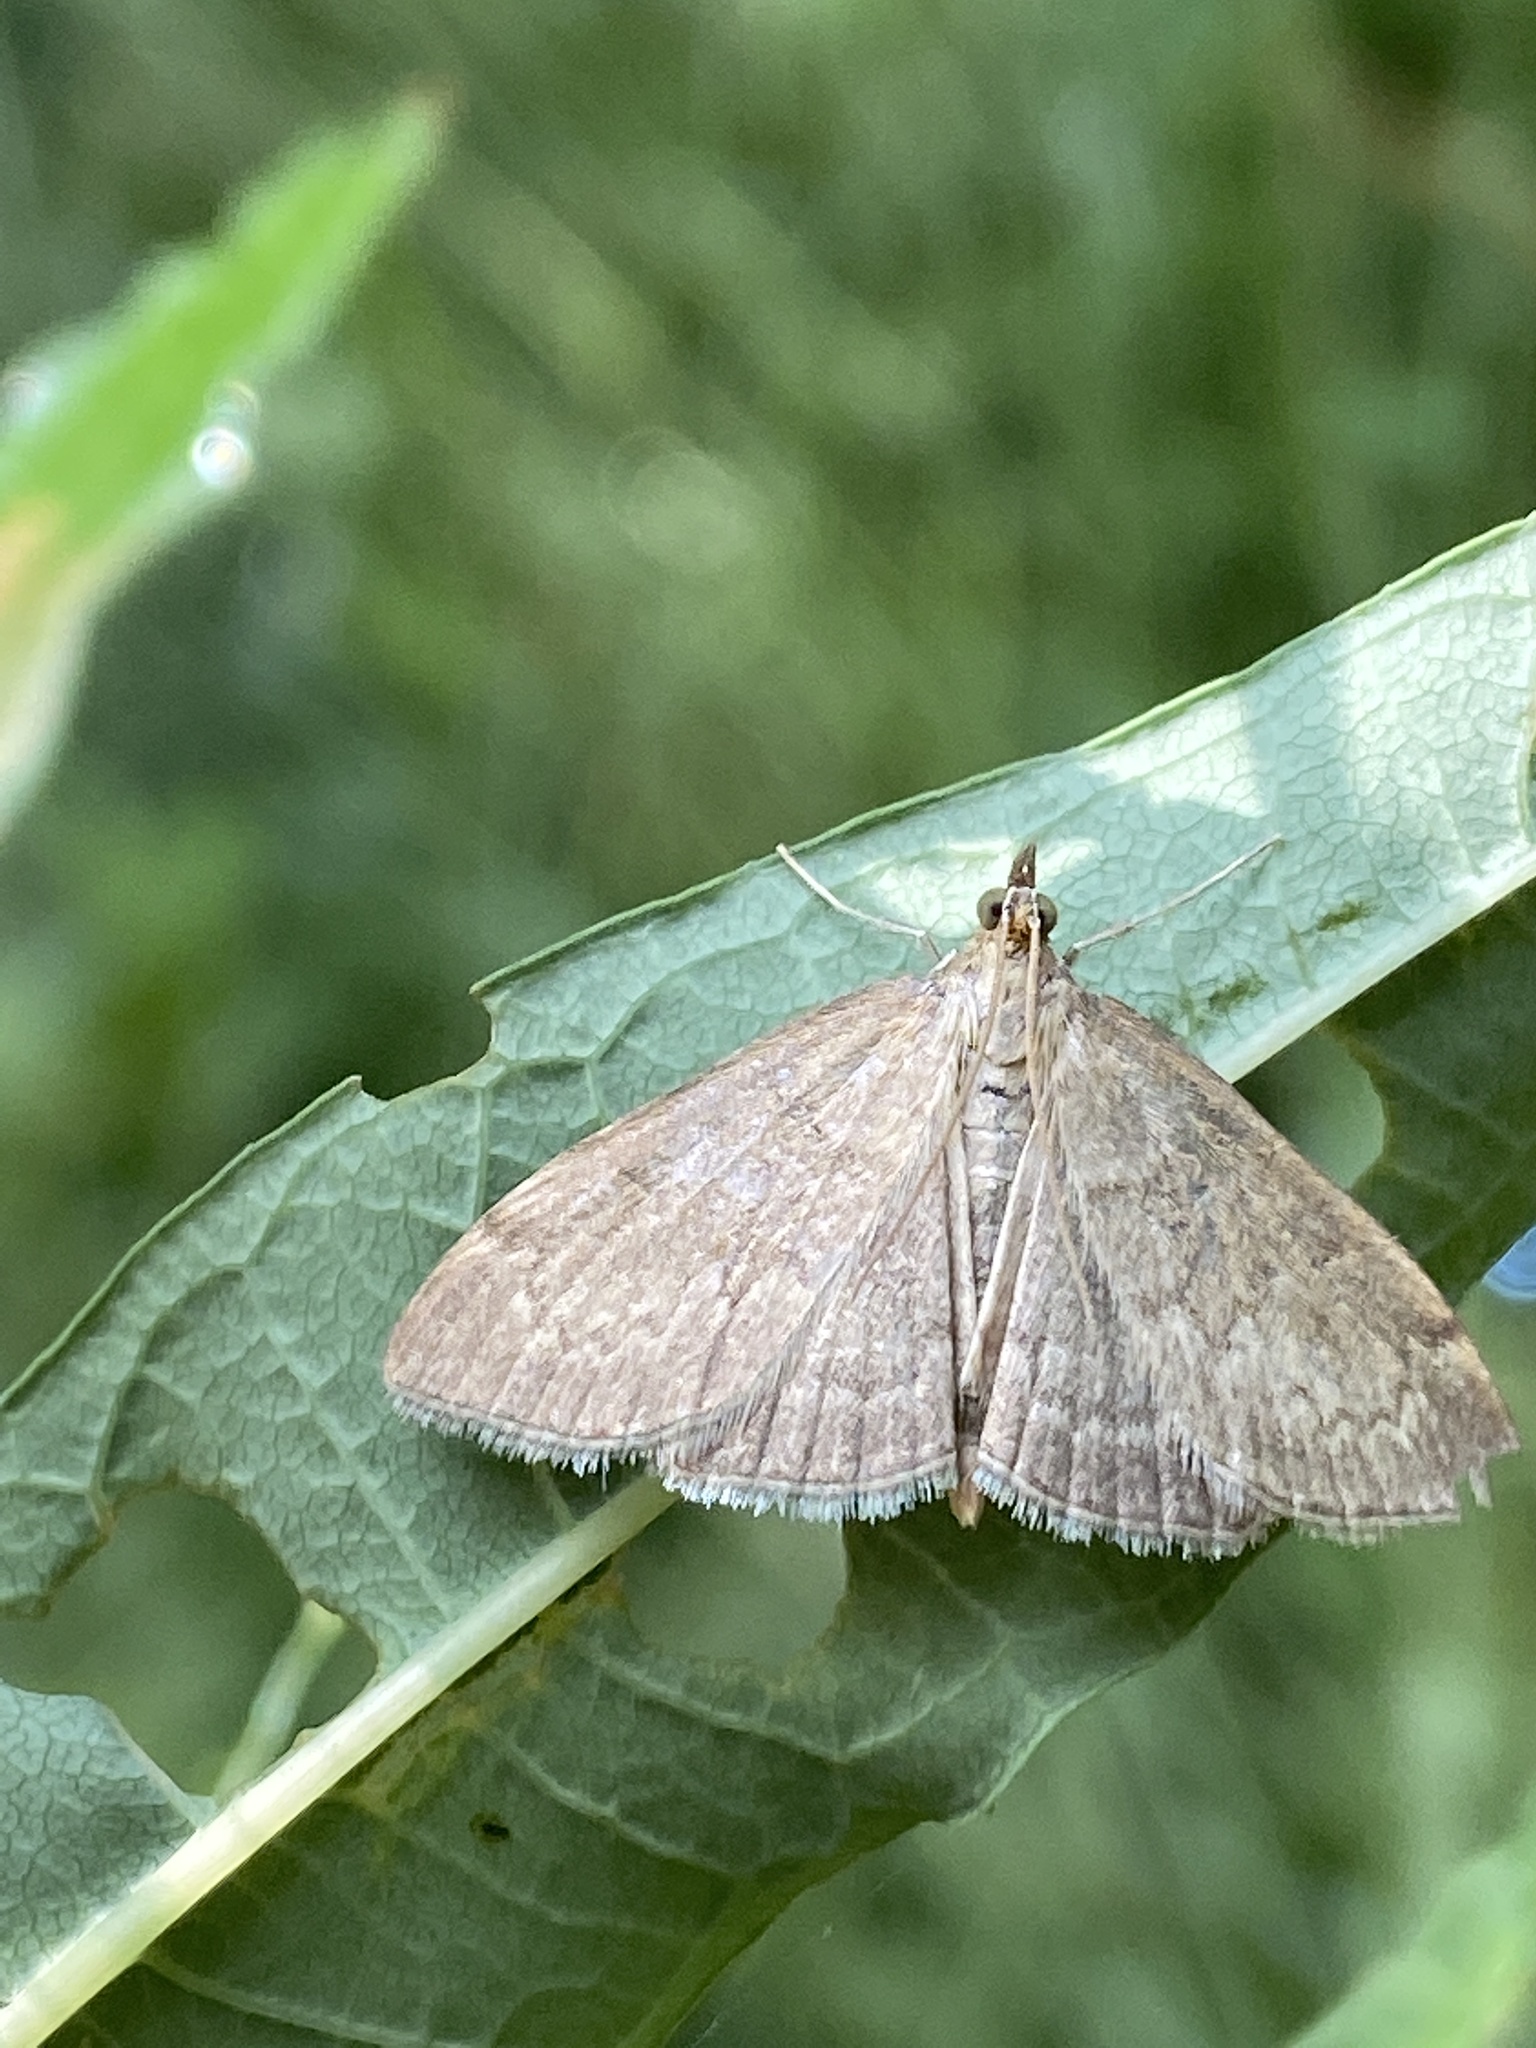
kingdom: Animalia
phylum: Arthropoda
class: Insecta
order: Lepidoptera
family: Crambidae
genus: Anania
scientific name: Anania fuscalis
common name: Cinerous pearl
